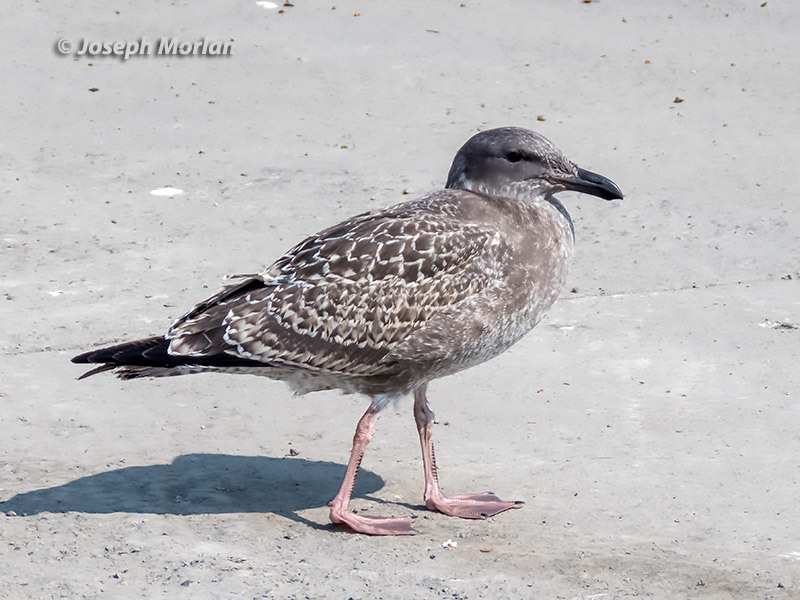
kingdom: Animalia
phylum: Chordata
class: Aves
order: Charadriiformes
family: Laridae
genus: Larus
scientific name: Larus occidentalis
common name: Western gull
